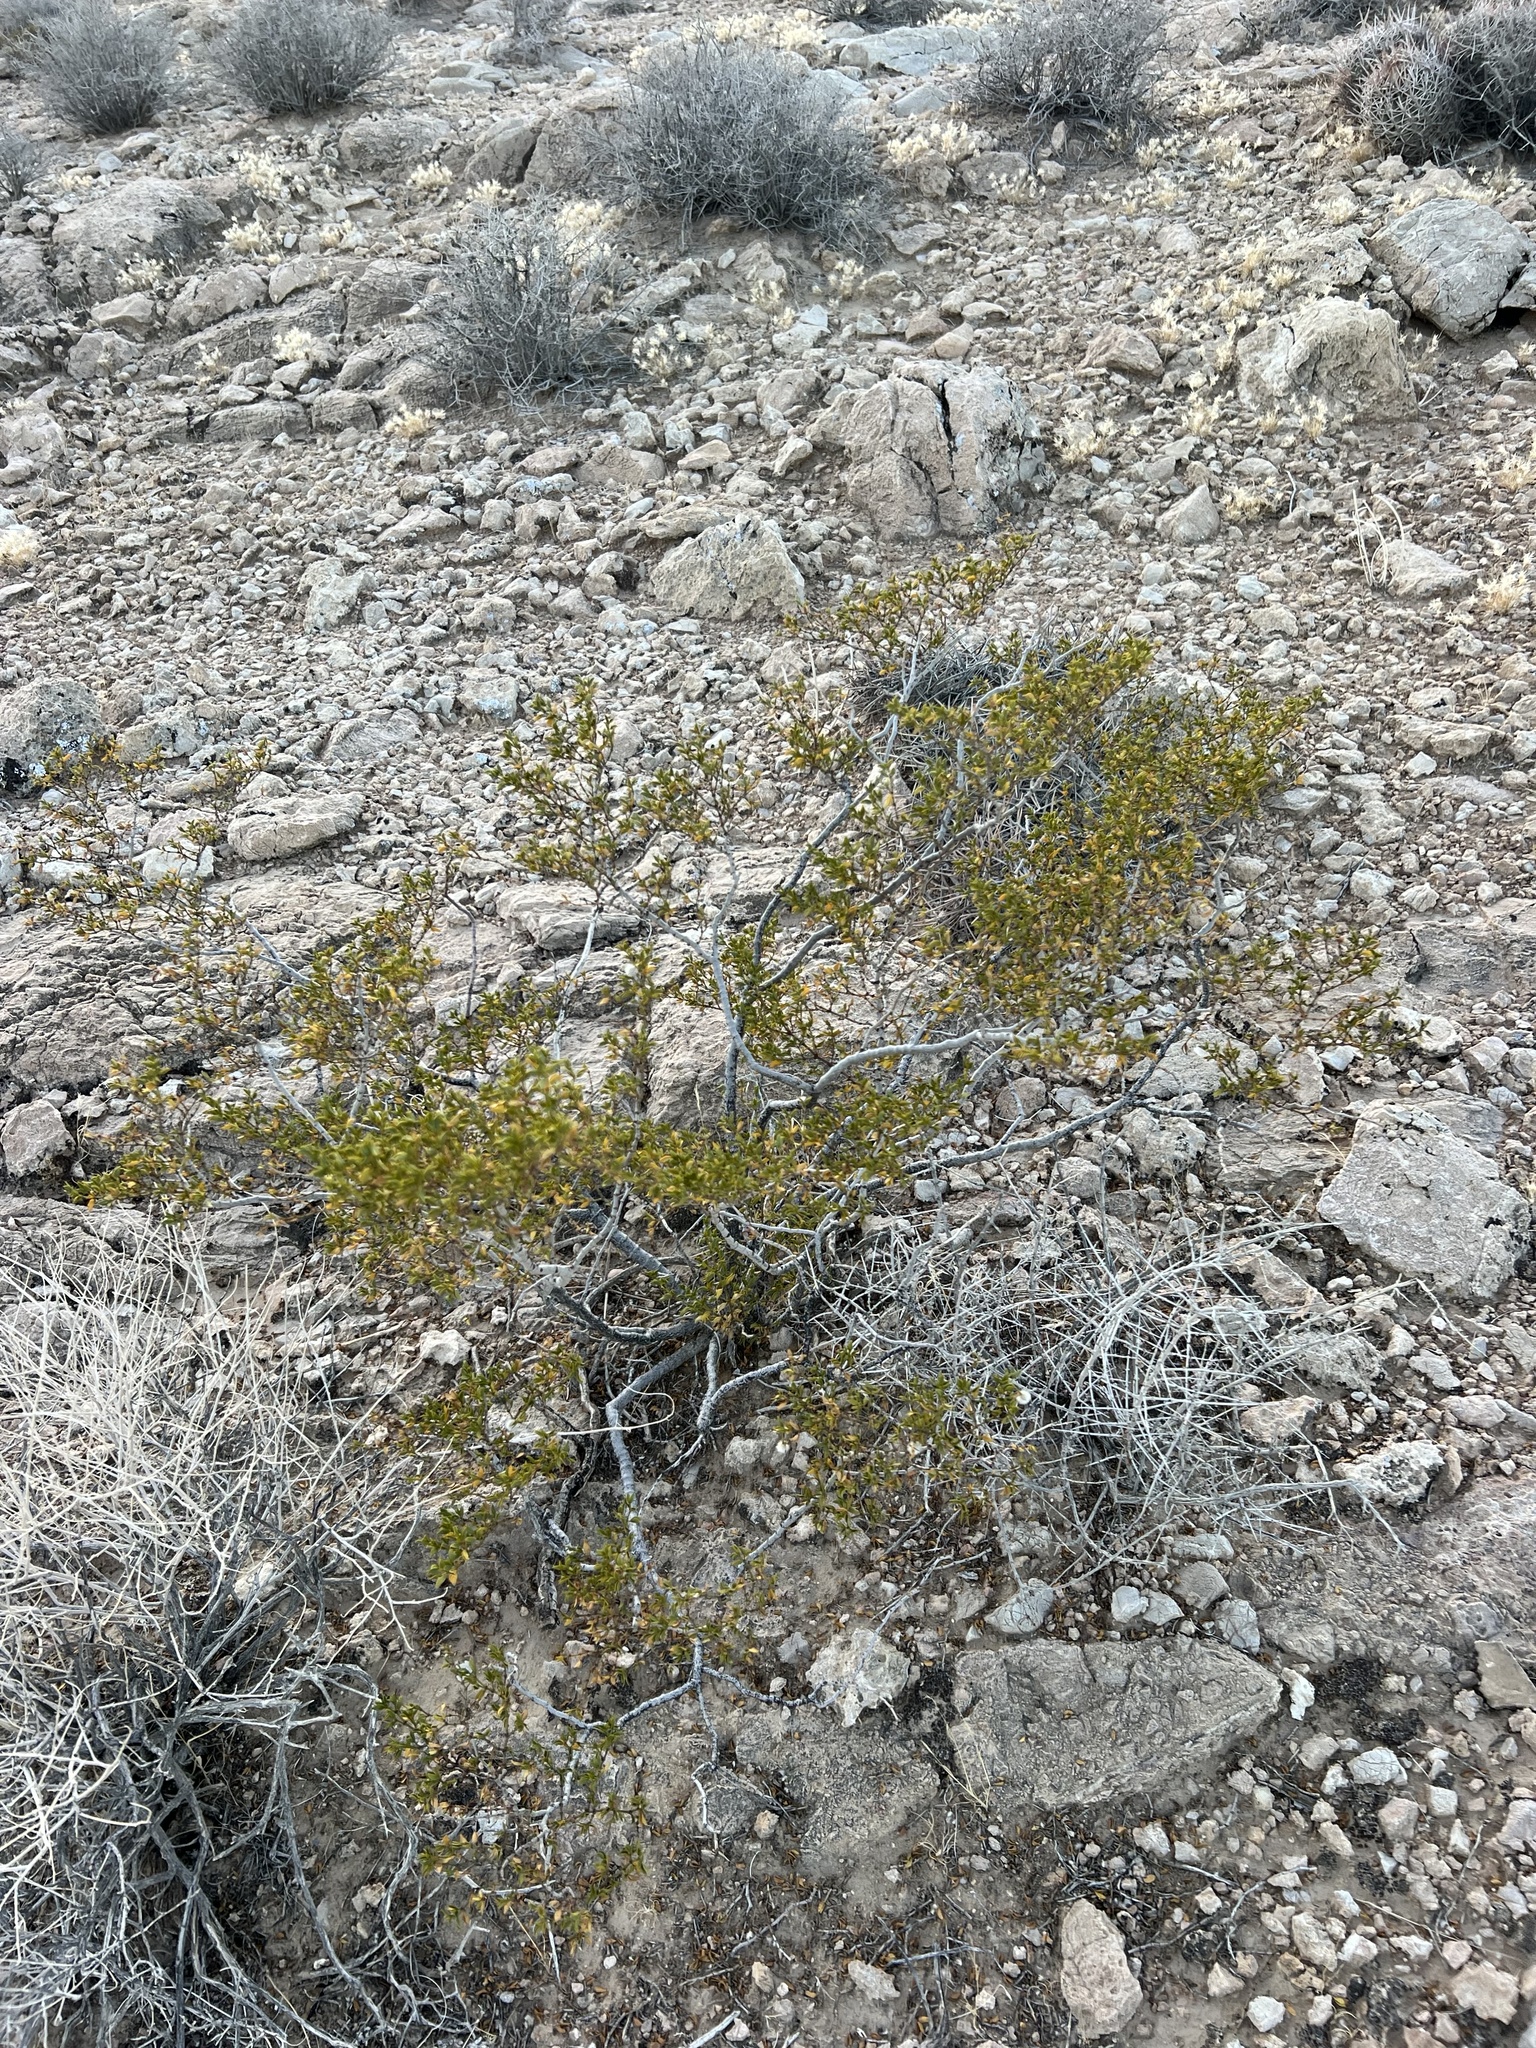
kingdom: Plantae
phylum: Tracheophyta
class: Magnoliopsida
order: Zygophyllales
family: Zygophyllaceae
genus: Larrea
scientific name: Larrea tridentata
